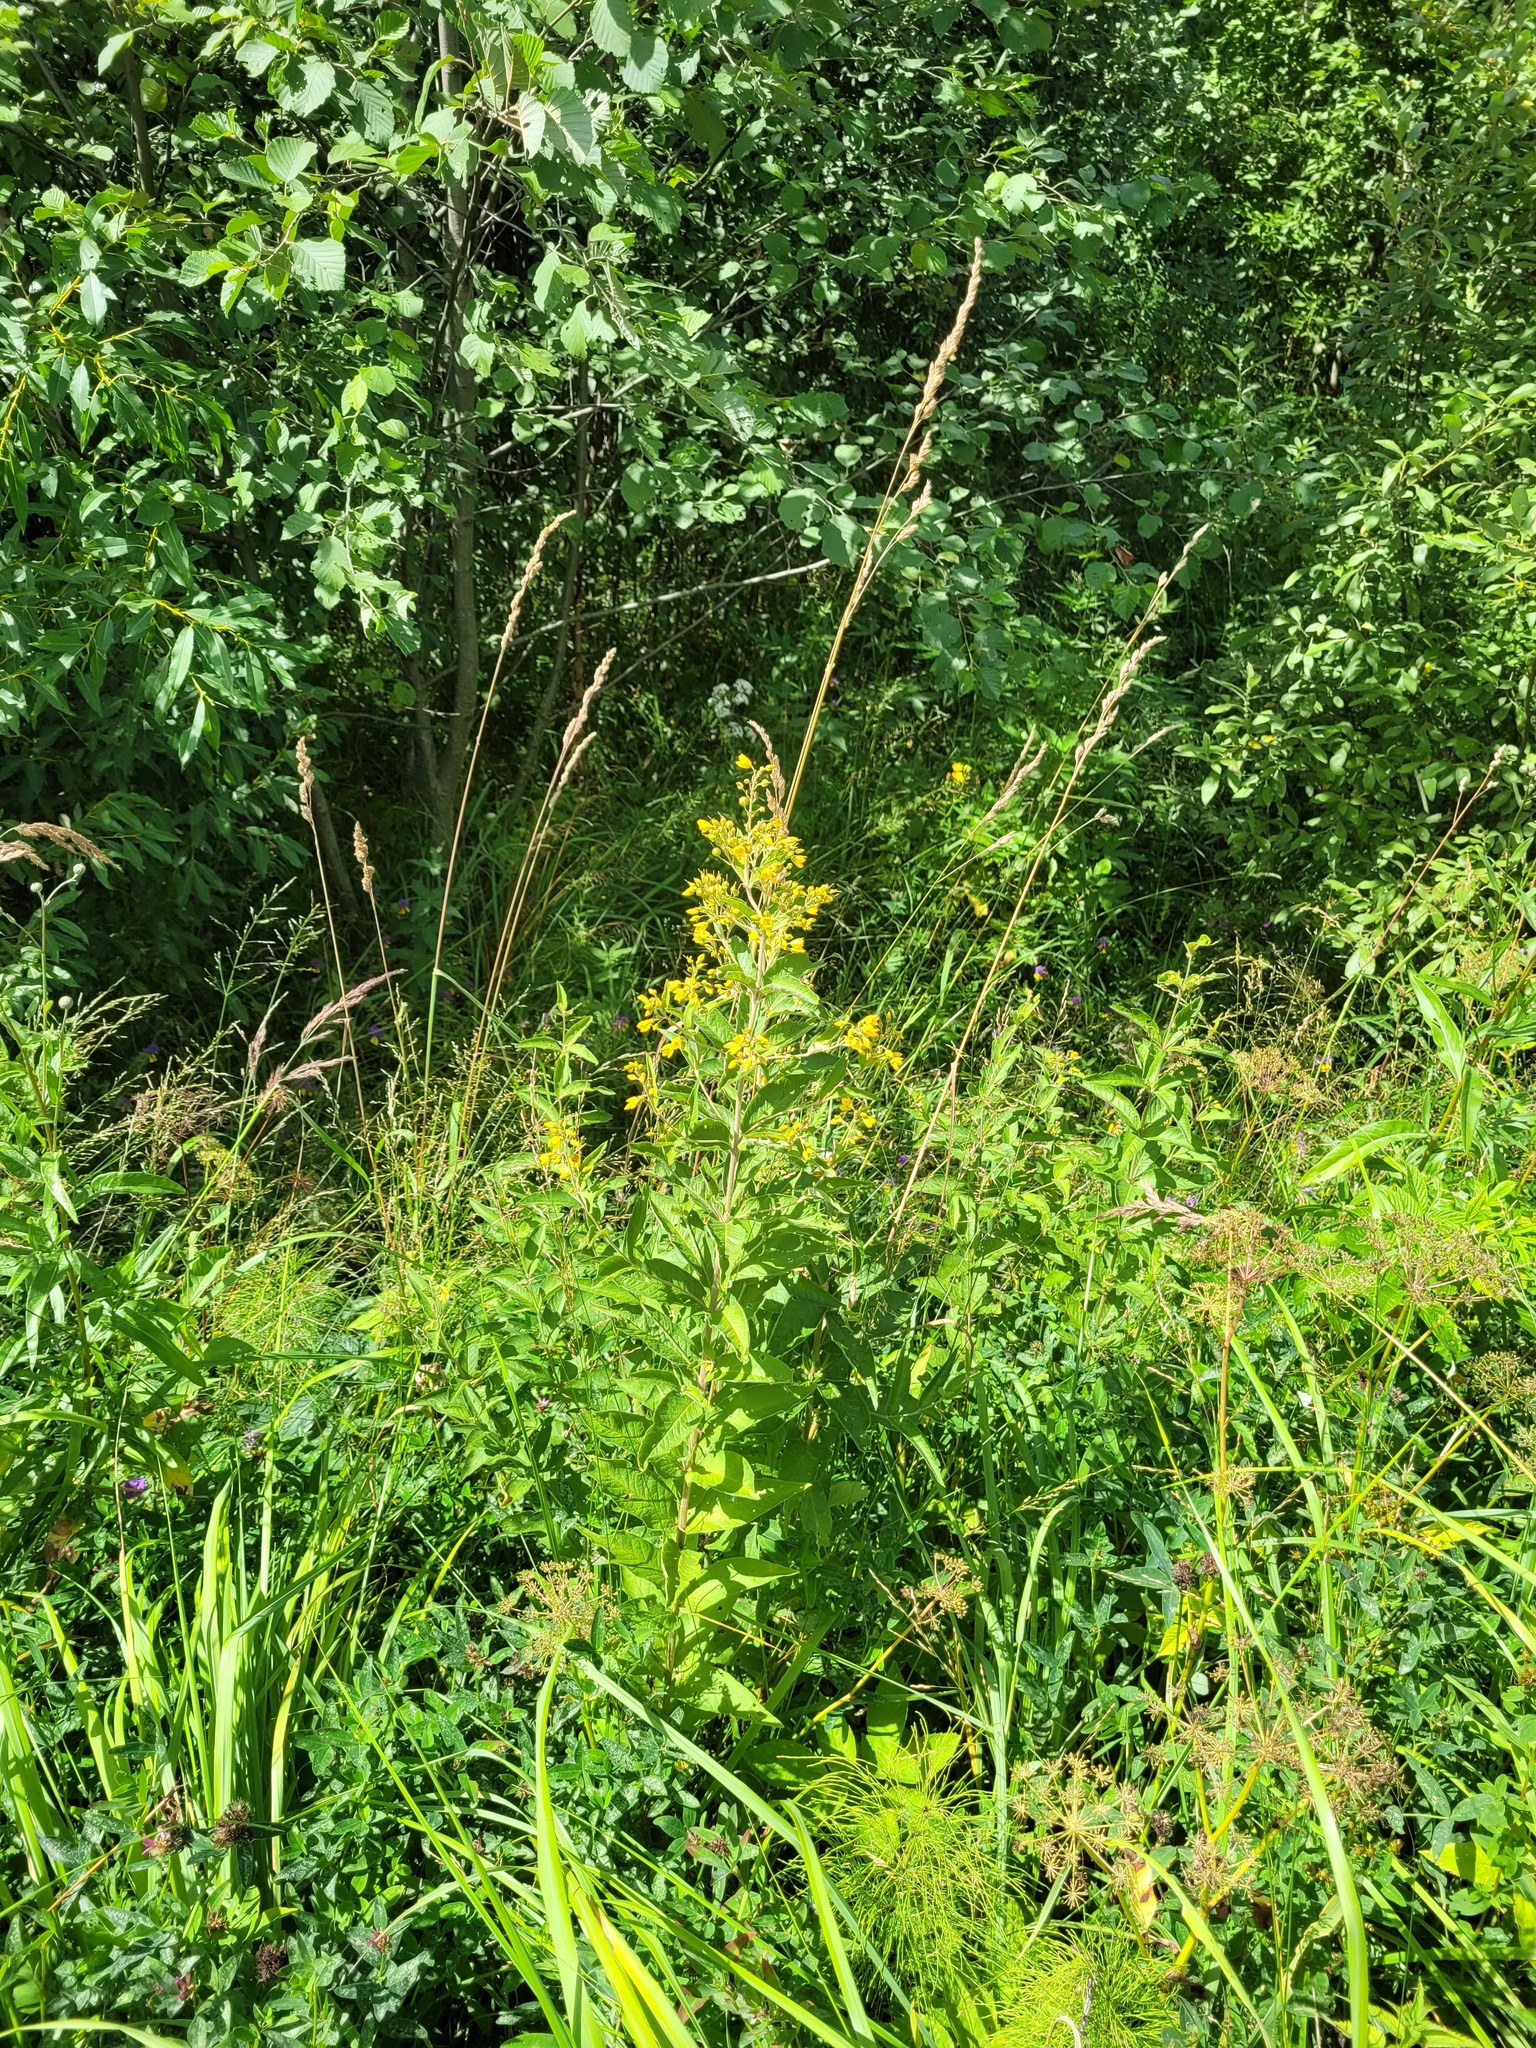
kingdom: Plantae
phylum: Tracheophyta
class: Magnoliopsida
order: Ericales
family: Primulaceae
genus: Lysimachia
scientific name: Lysimachia vulgaris
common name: Yellow loosestrife
